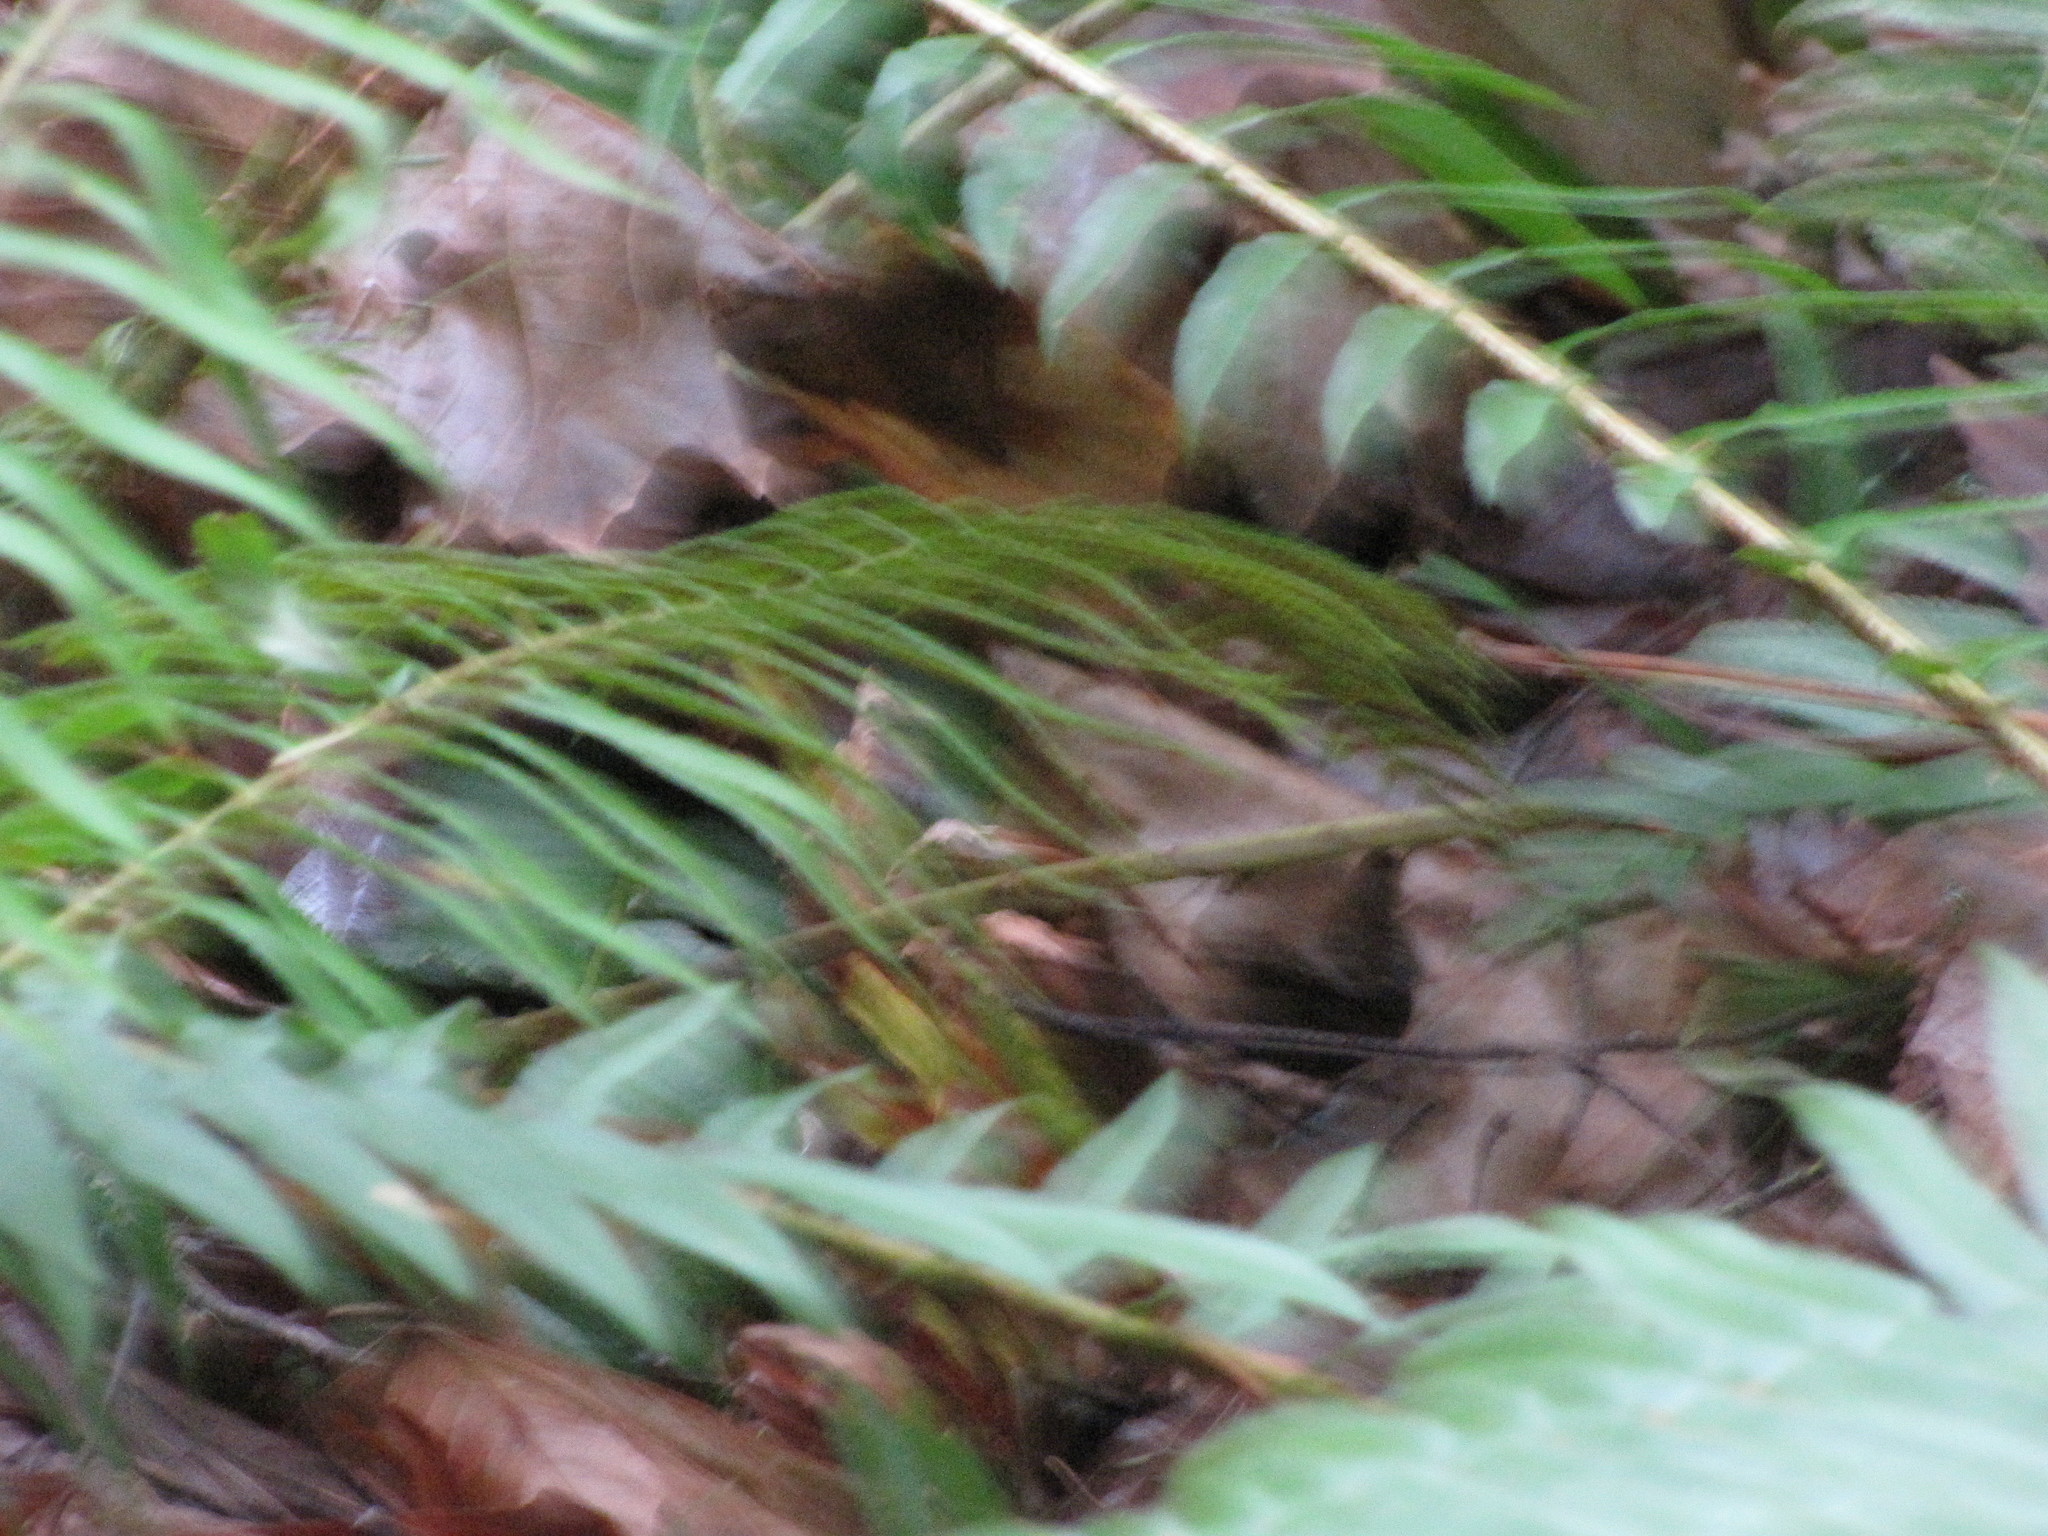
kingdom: Animalia
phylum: Chordata
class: Aves
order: Passeriformes
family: Troglodytidae
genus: Troglodytes
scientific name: Troglodytes pacificus
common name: Pacific wren
